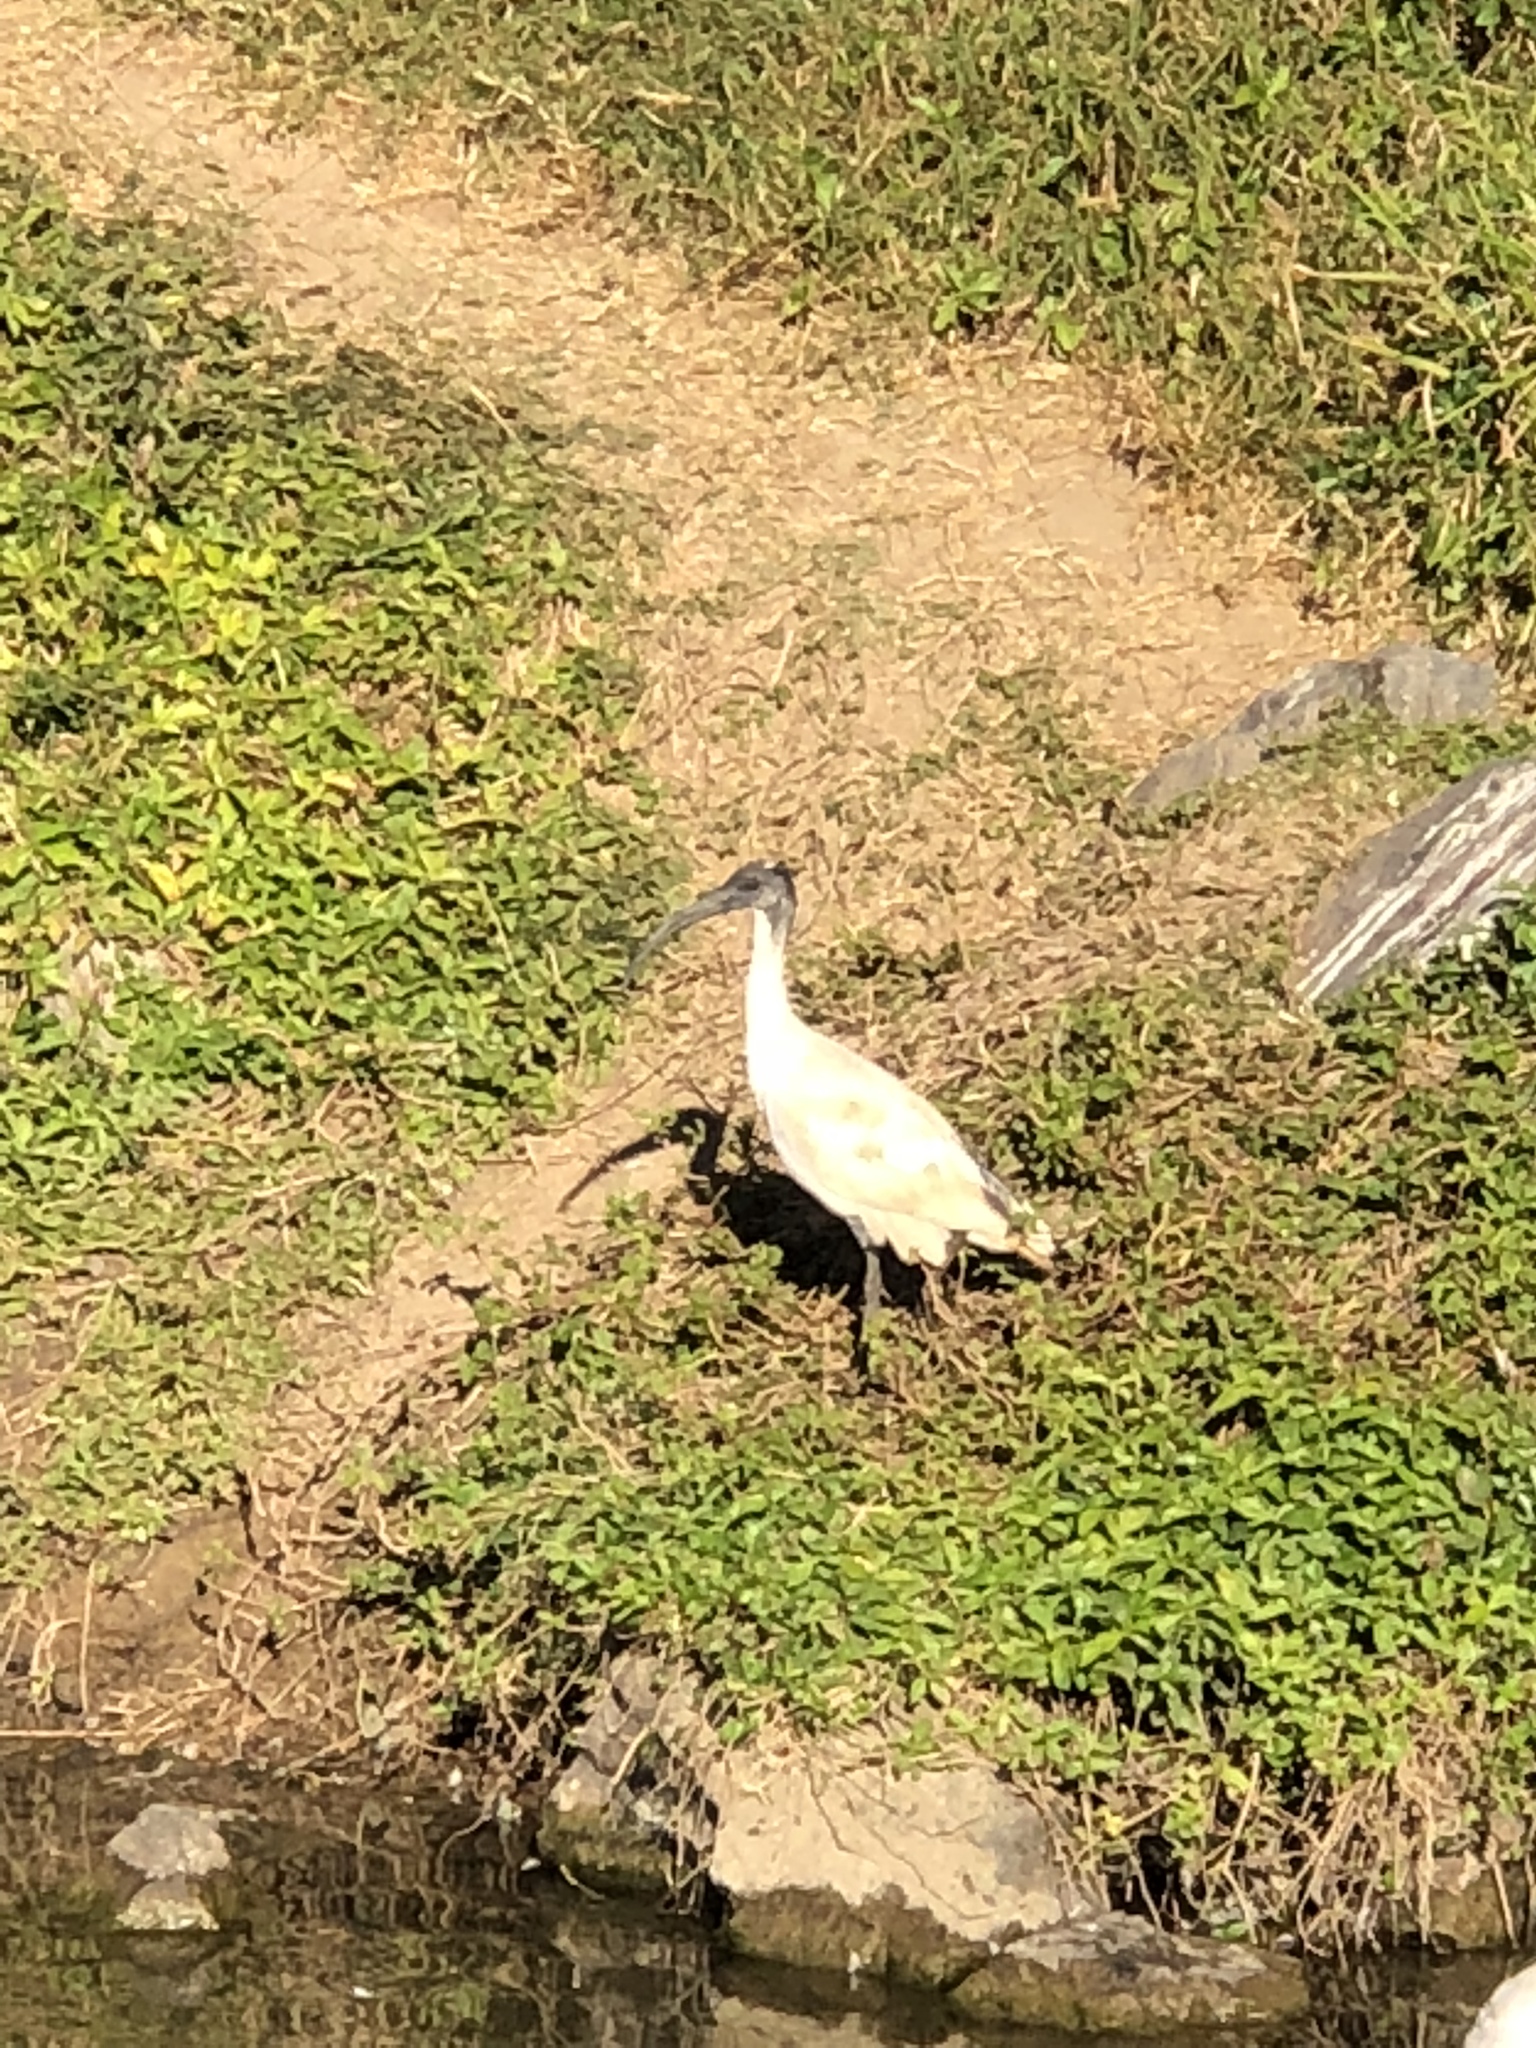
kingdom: Animalia
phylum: Chordata
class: Aves
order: Pelecaniformes
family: Threskiornithidae
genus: Threskiornis
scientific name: Threskiornis molucca
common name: Australian white ibis
